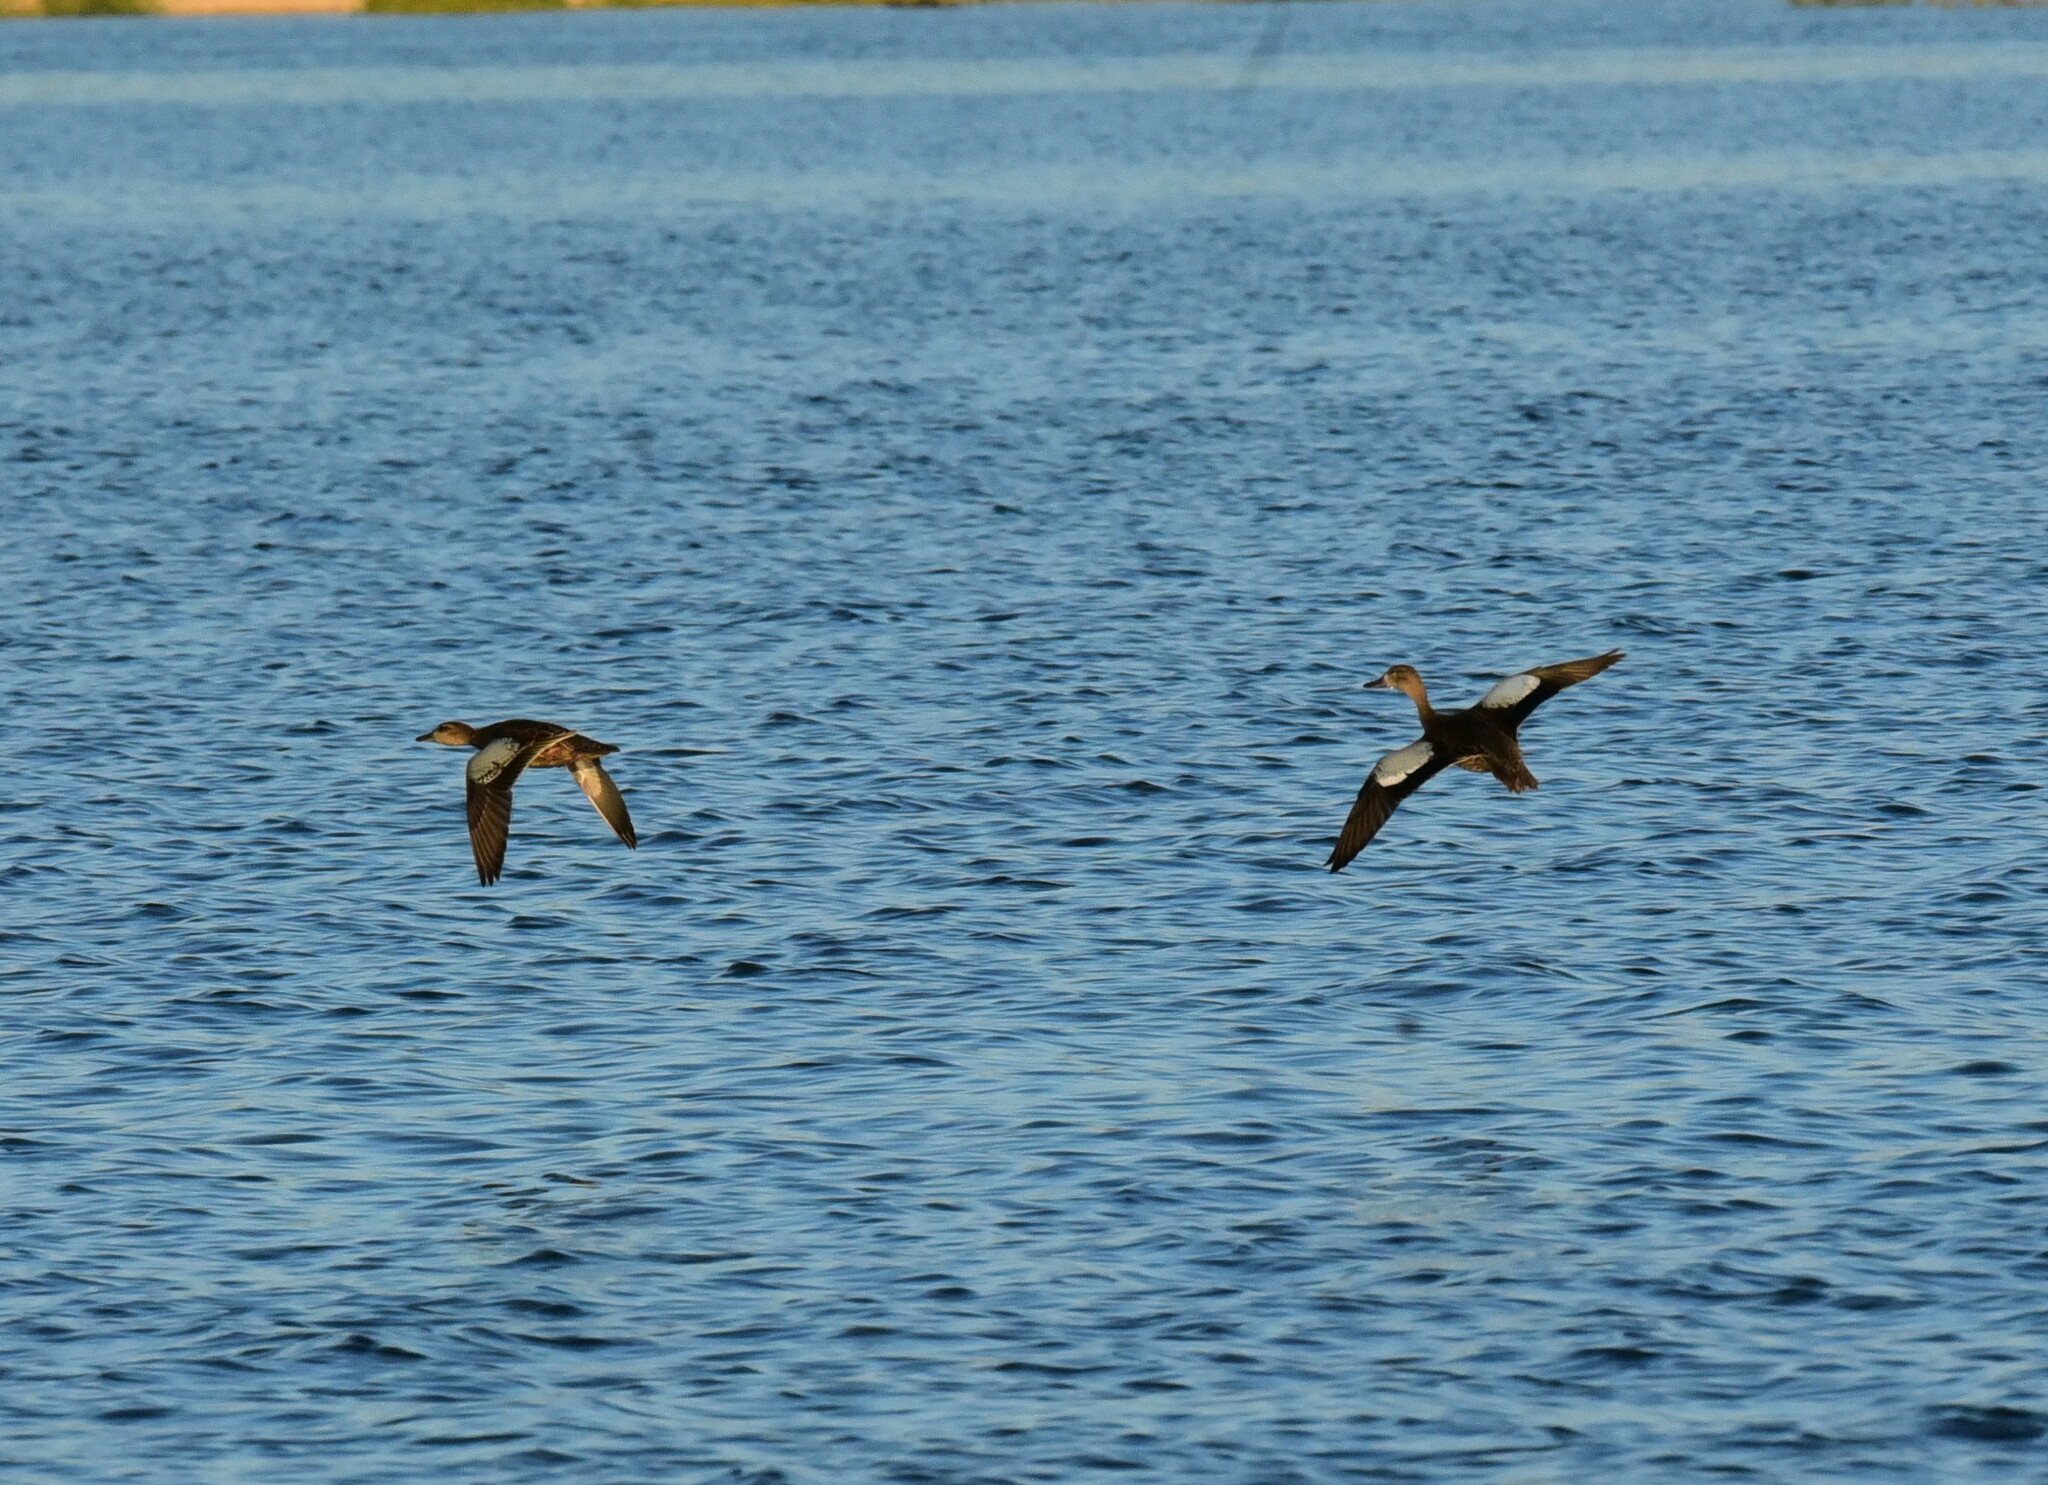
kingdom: Animalia
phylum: Chordata
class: Aves
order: Anseriformes
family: Anatidae
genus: Spatula
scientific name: Spatula discors
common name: Blue-winged teal
